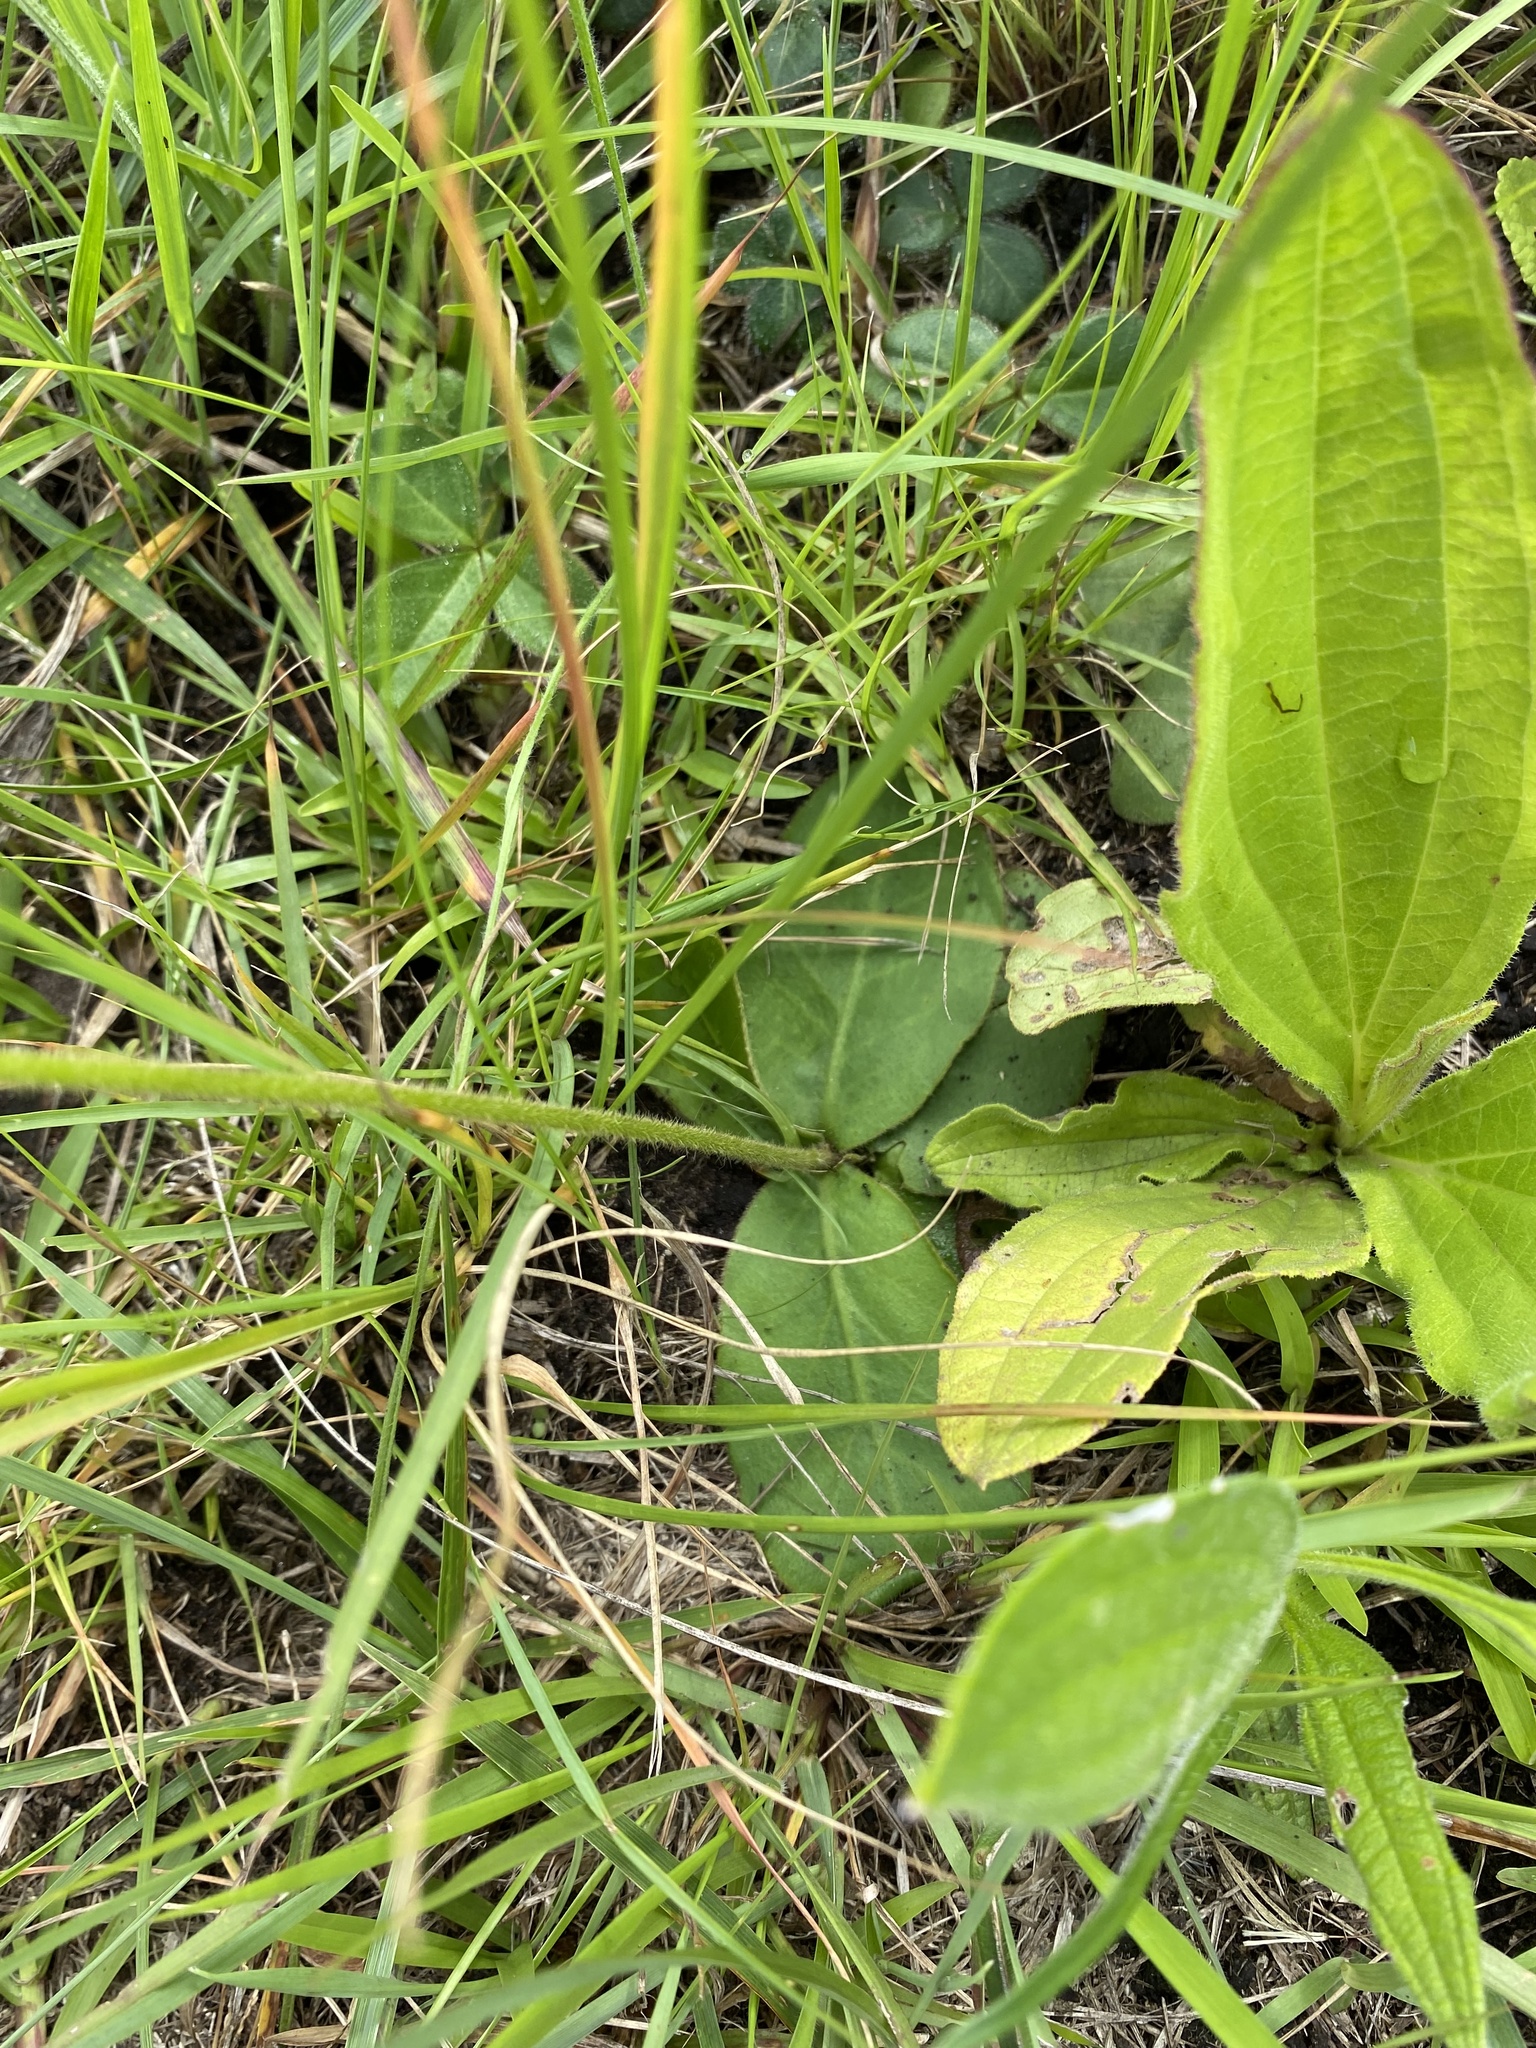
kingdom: Plantae
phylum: Tracheophyta
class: Magnoliopsida
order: Asterales
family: Asteraceae
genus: Piloselloides
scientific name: Piloselloides hirsuta
